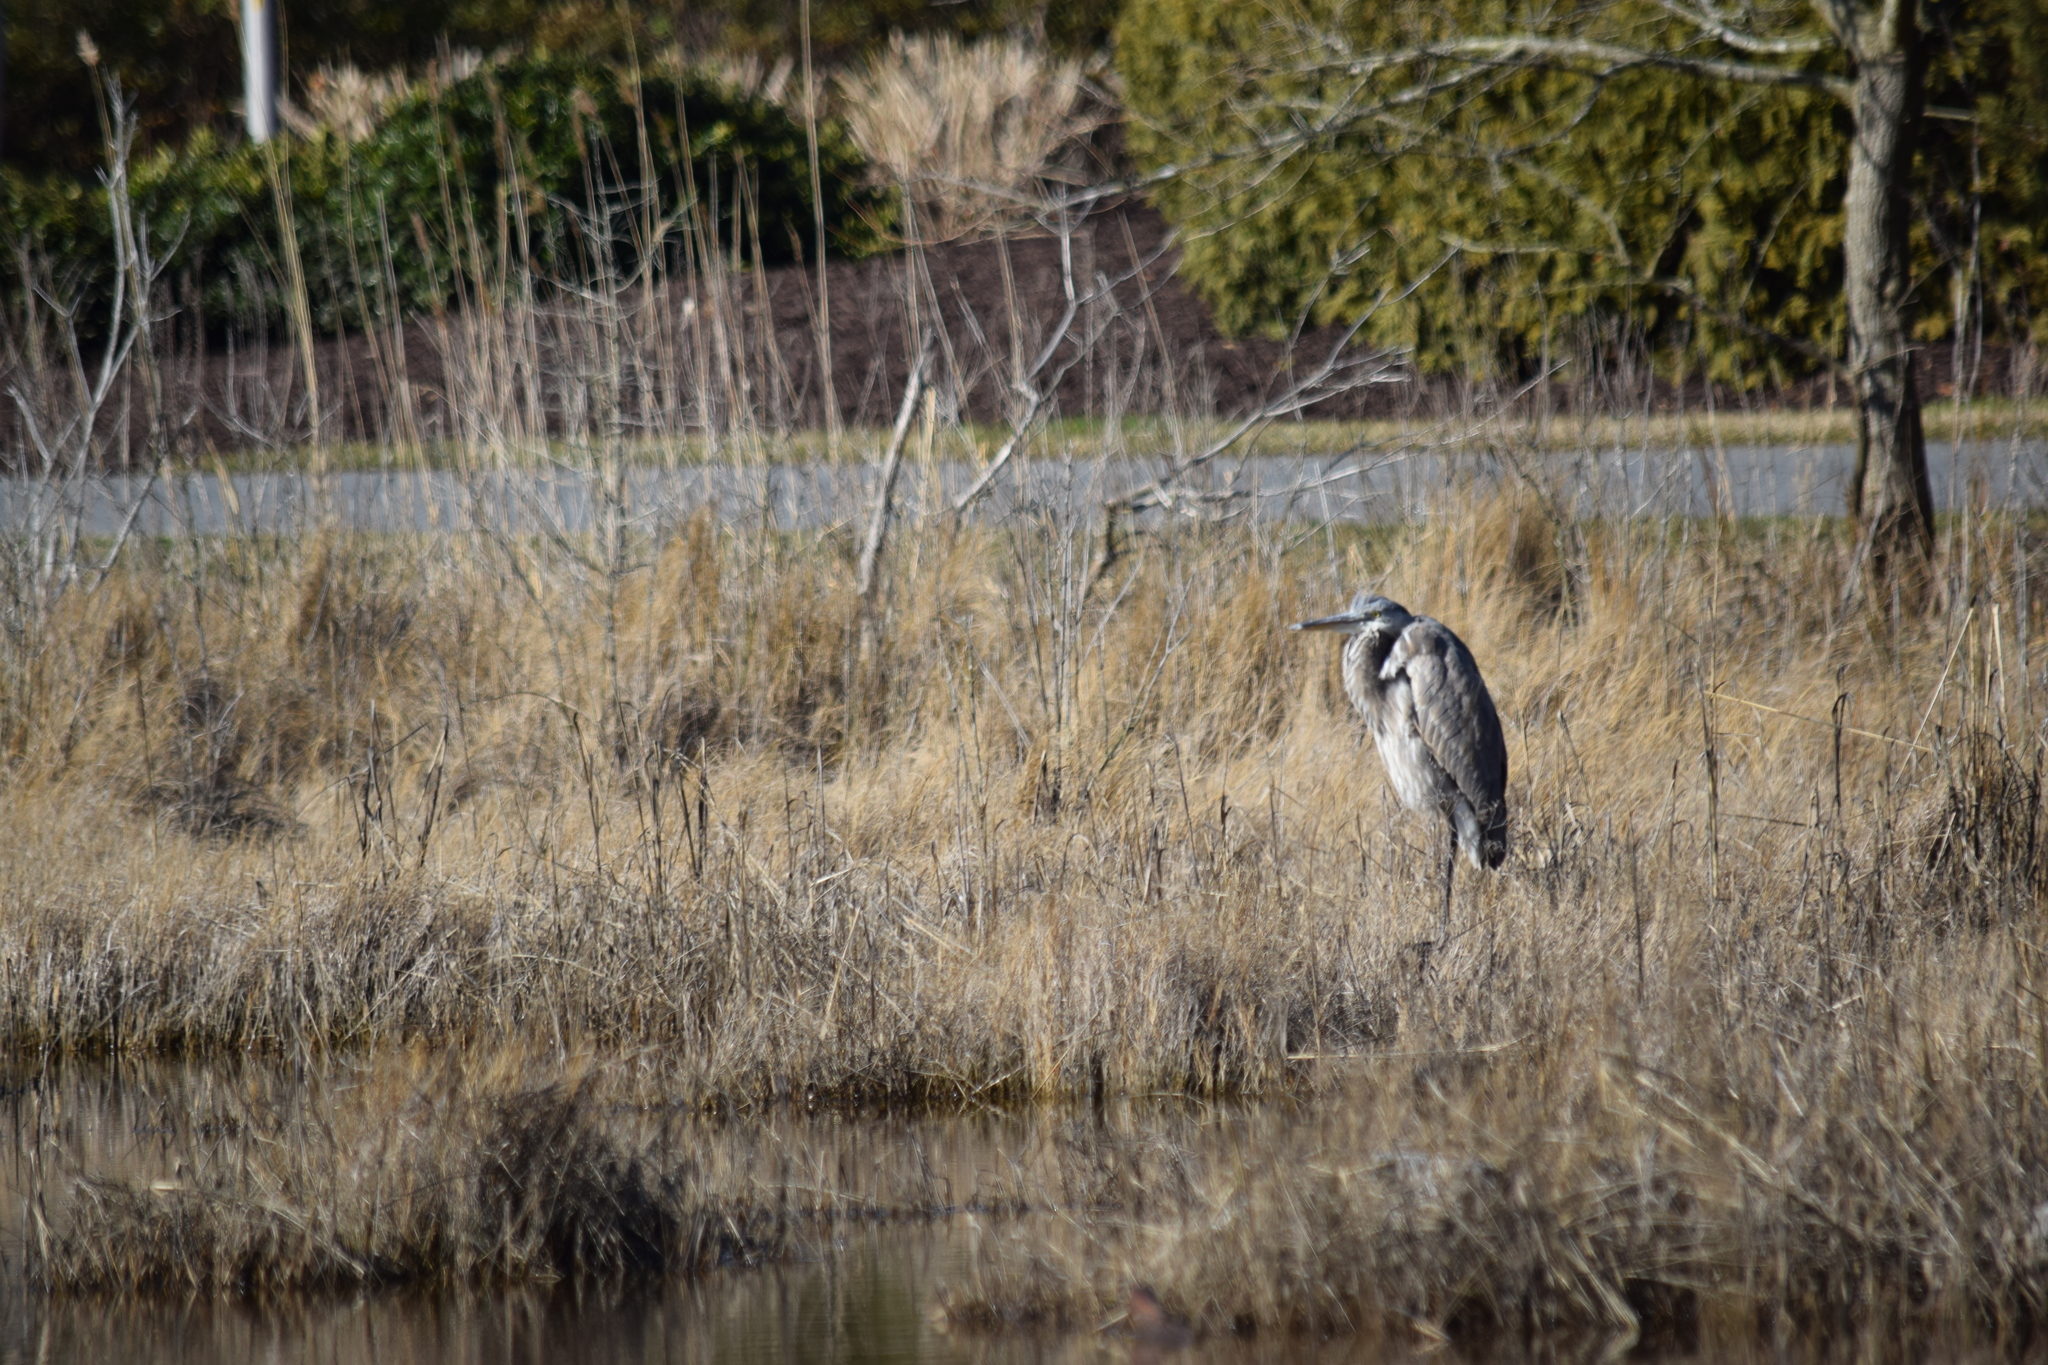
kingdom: Animalia
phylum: Chordata
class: Aves
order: Pelecaniformes
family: Ardeidae
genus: Ardea
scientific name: Ardea herodias
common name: Great blue heron
